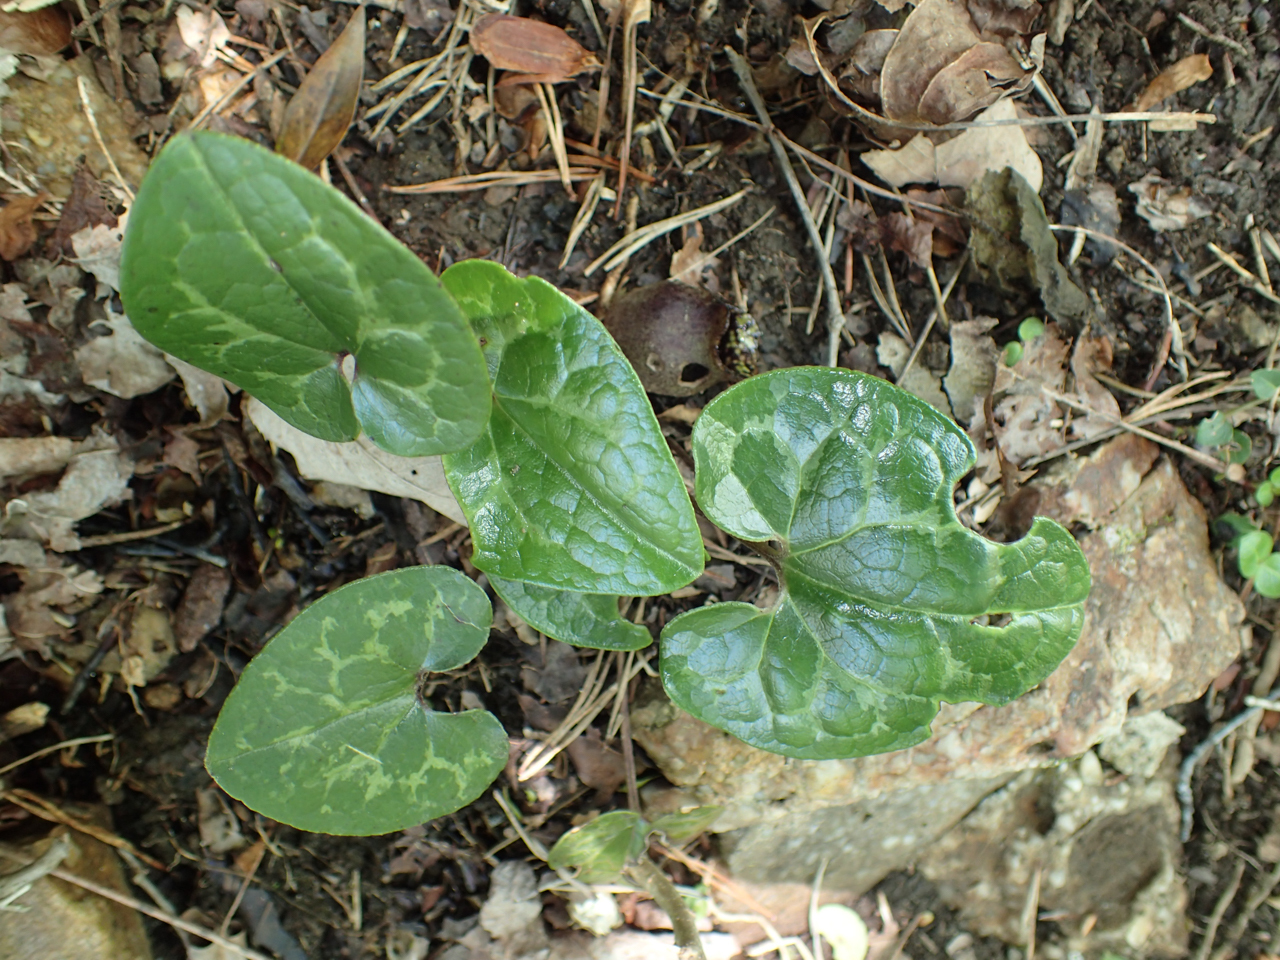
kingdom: Plantae
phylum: Tracheophyta
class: Magnoliopsida
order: Piperales
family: Aristolochiaceae
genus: Hexastylis
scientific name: Hexastylis arifolia
